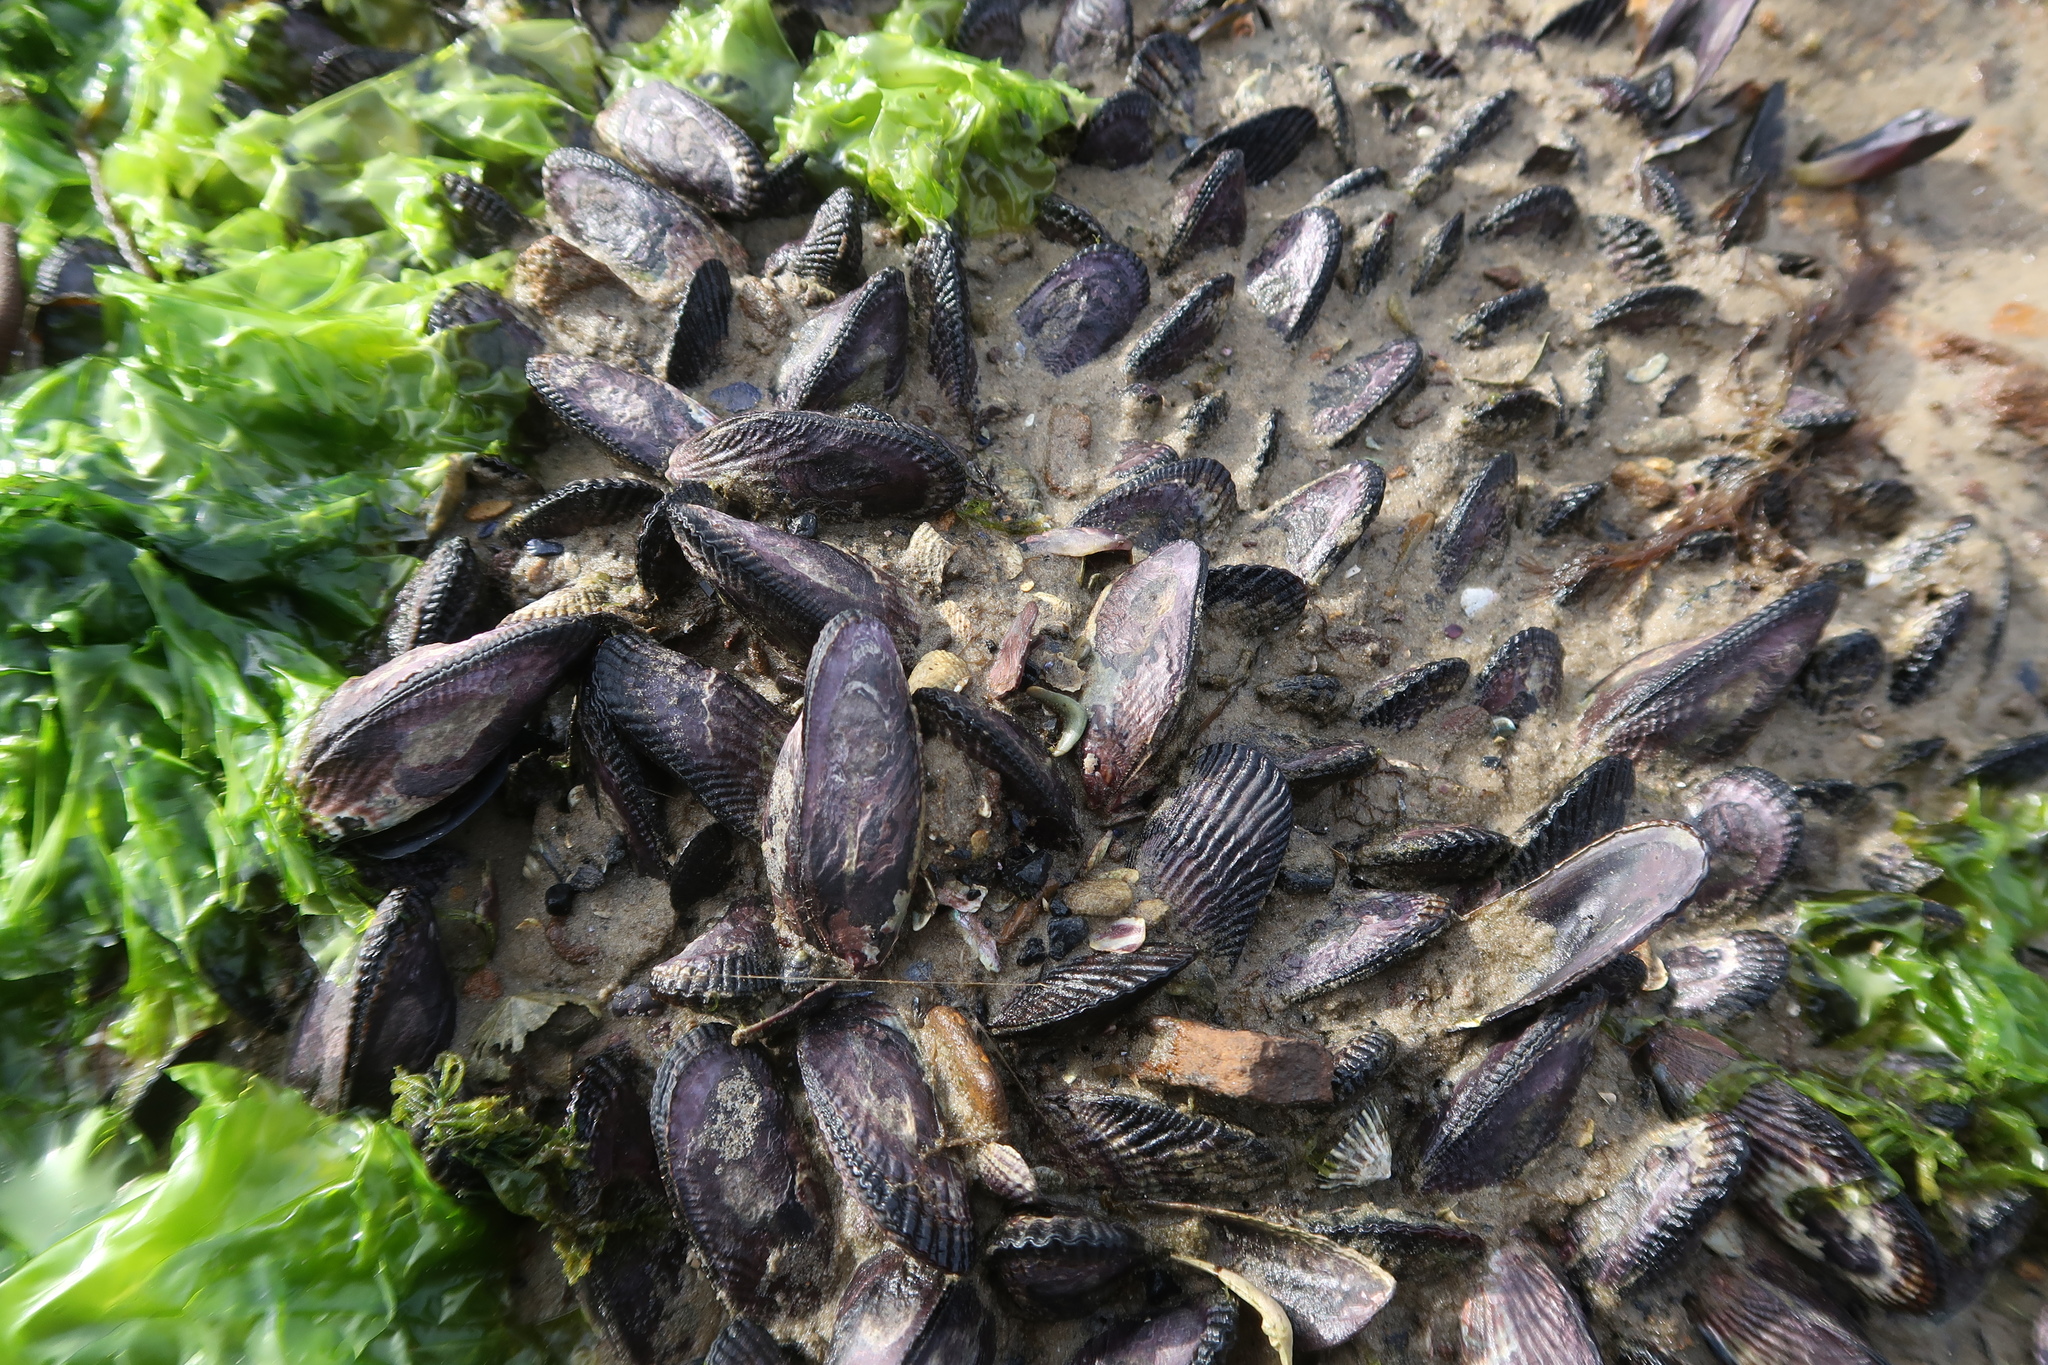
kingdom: Animalia
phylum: Mollusca
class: Bivalvia
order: Mytilida
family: Mytilidae
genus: Brachidontes
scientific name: Brachidontes erosus
